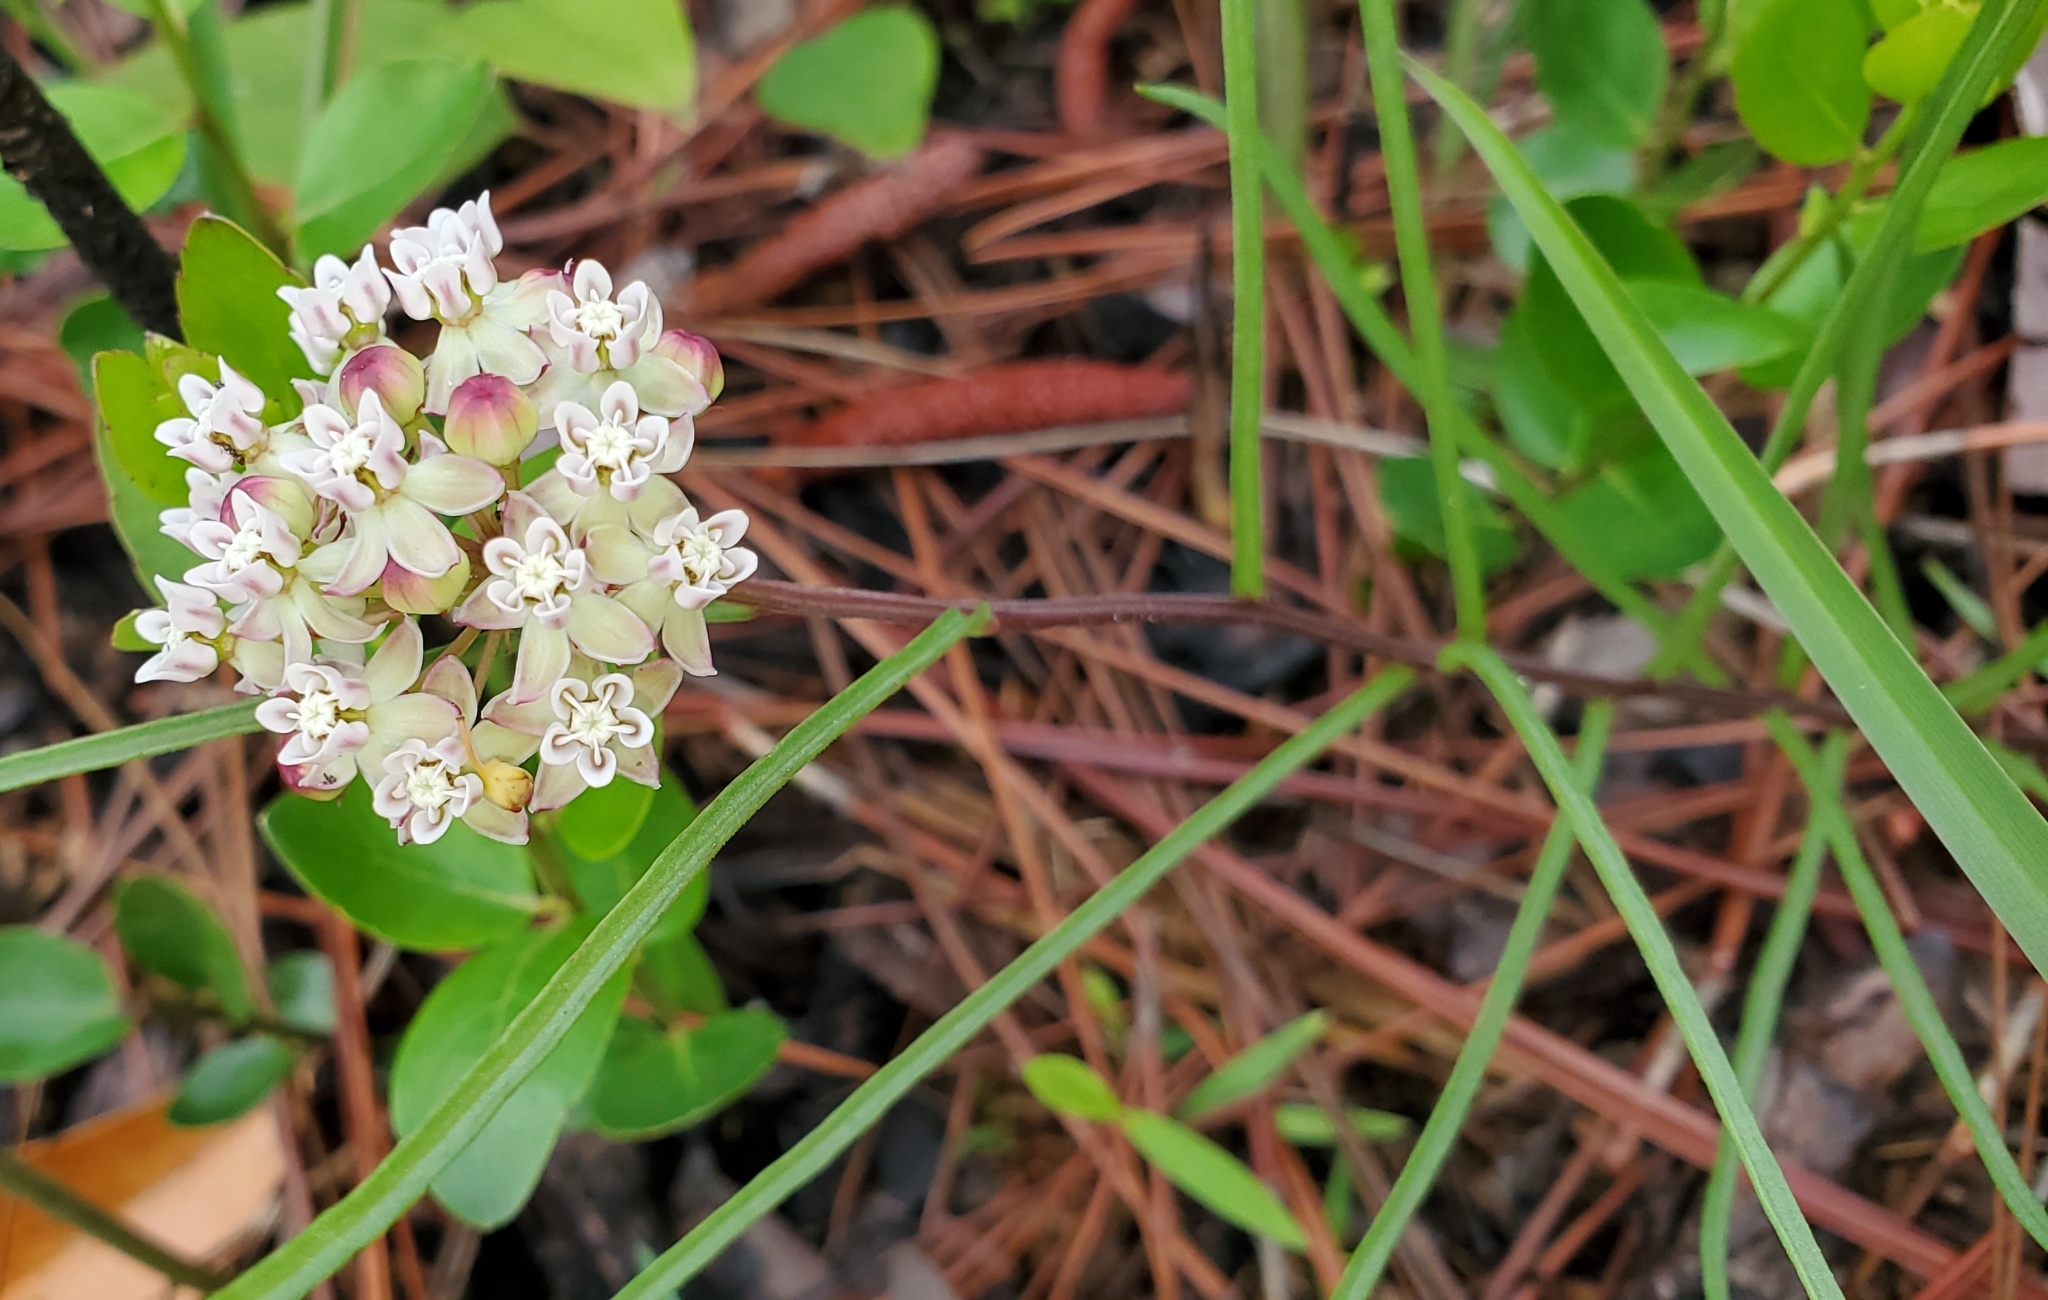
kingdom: Plantae
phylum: Tracheophyta
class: Magnoliopsida
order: Gentianales
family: Apocynaceae
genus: Asclepias
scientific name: Asclepias michauxii
